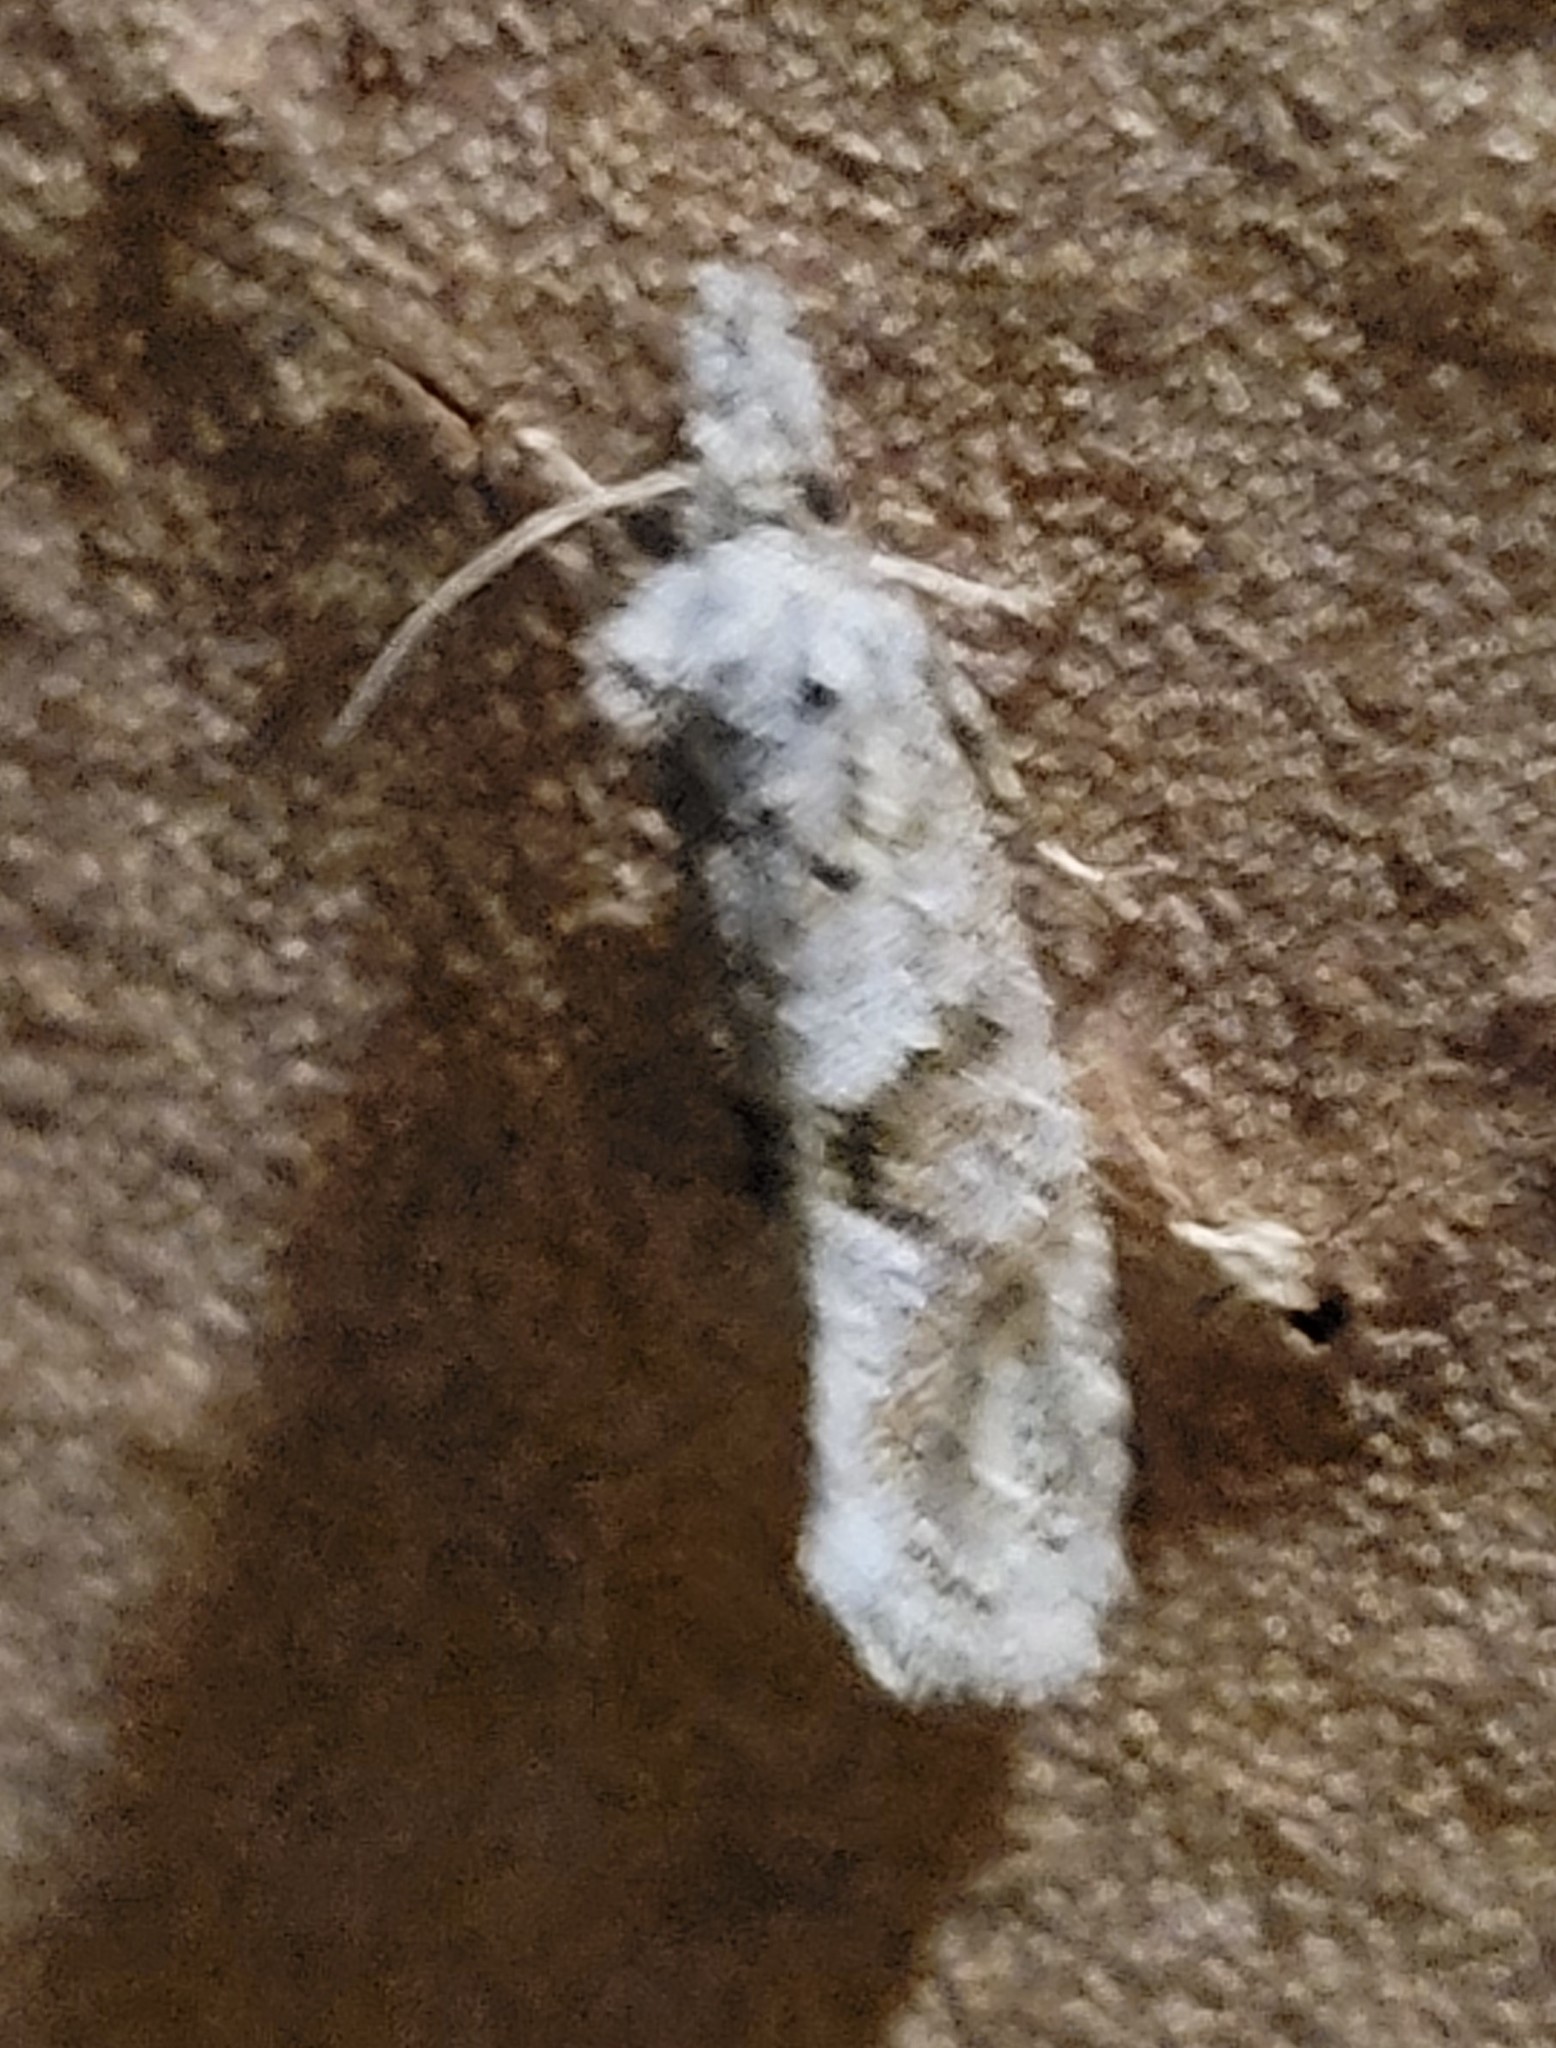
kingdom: Animalia
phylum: Arthropoda
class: Insecta
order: Lepidoptera
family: Tineidae
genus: Acrolophus
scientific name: Acrolophus piger
